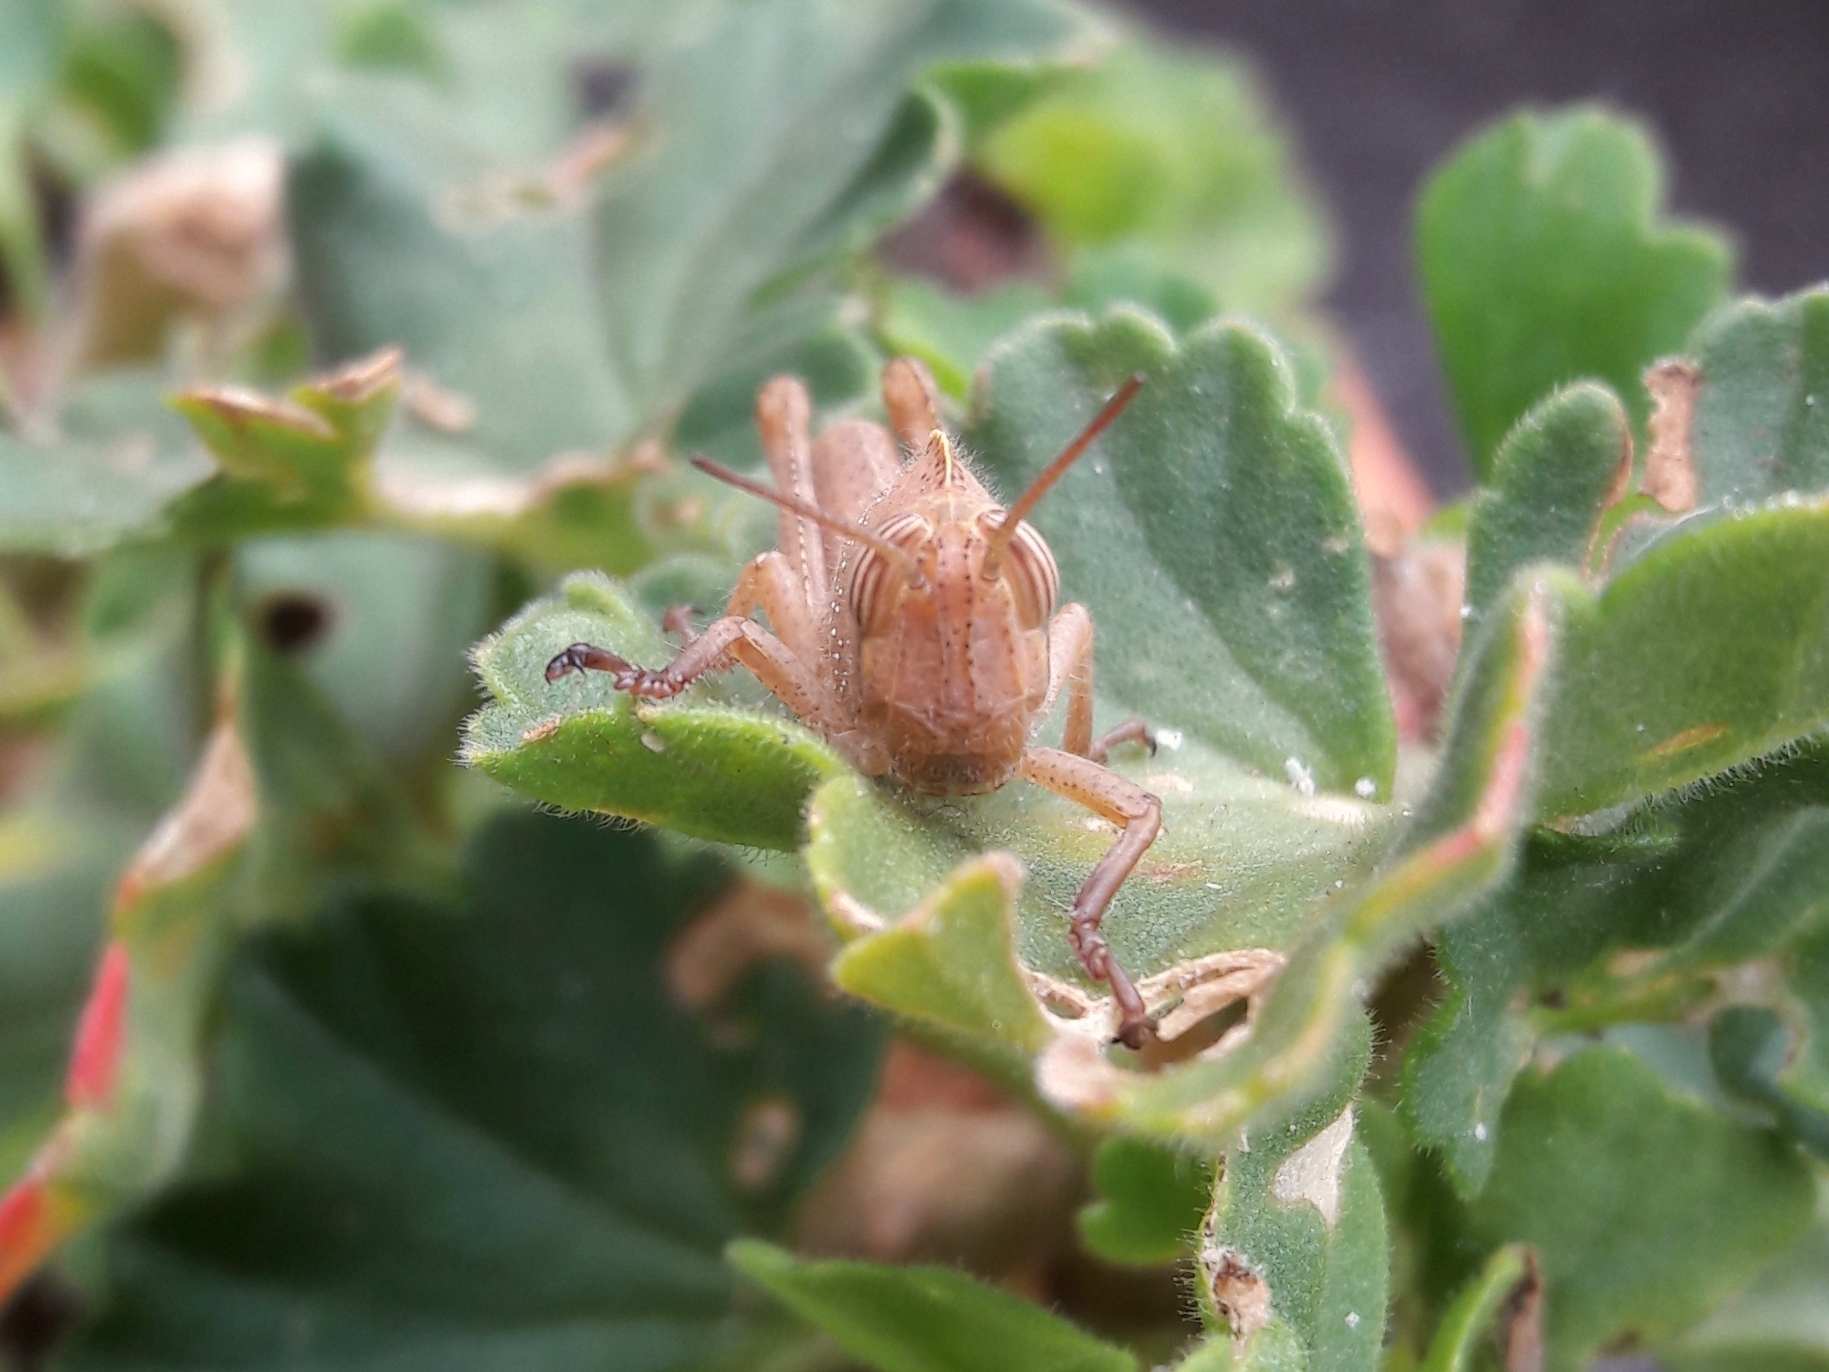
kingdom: Animalia
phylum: Arthropoda
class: Insecta
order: Orthoptera
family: Acrididae
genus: Anacridium
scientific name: Anacridium aegyptium
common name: Egyptian grasshopper
